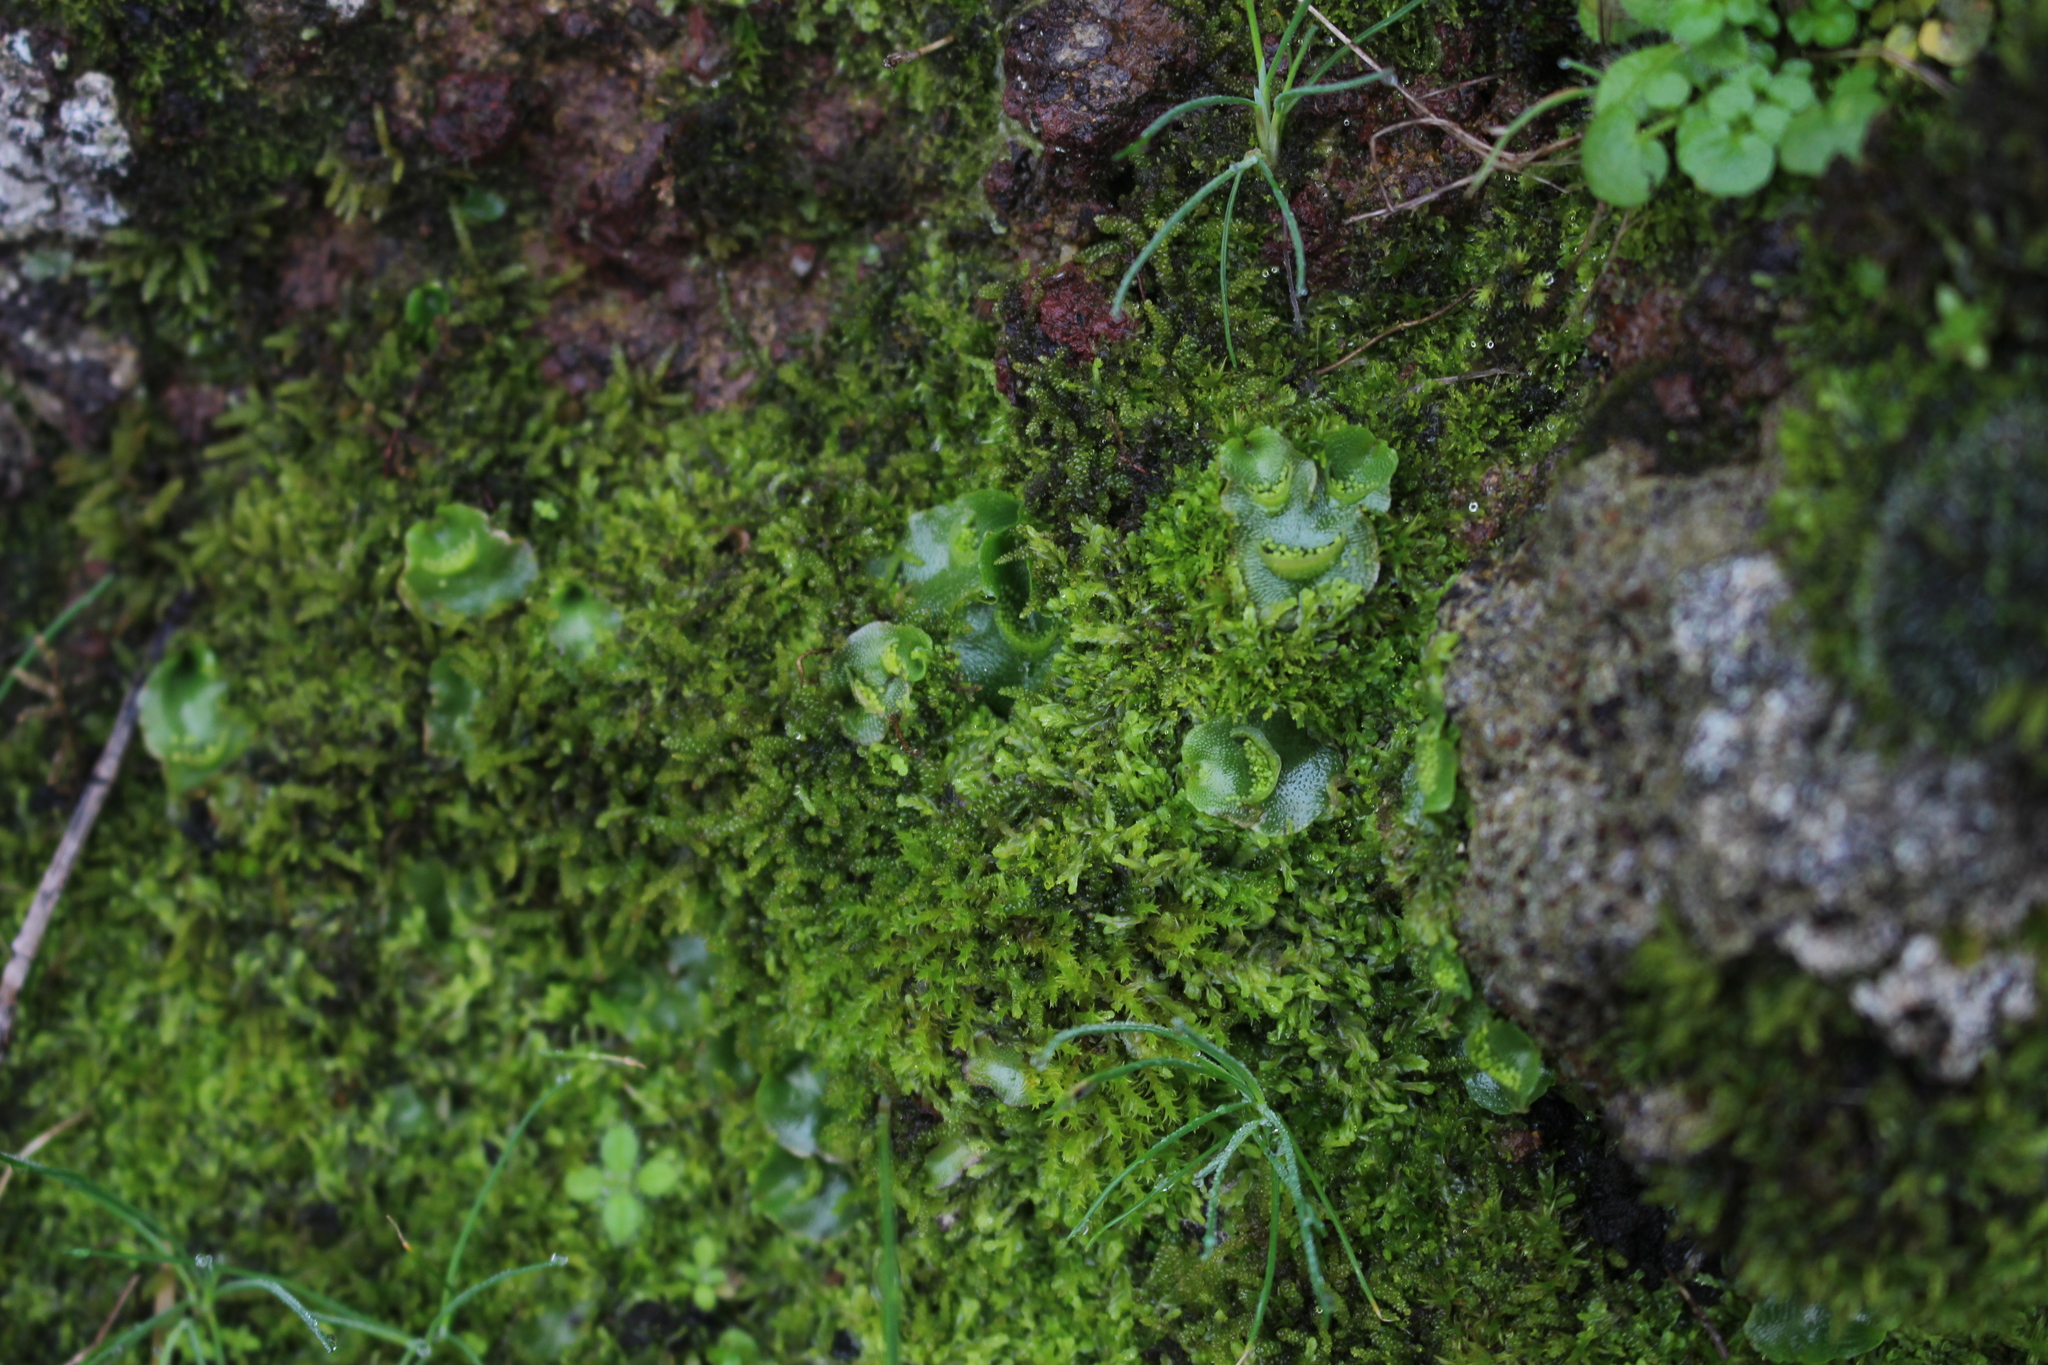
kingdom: Plantae
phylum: Marchantiophyta
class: Marchantiopsida
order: Lunulariales
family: Lunulariaceae
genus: Lunularia
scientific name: Lunularia cruciata
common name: Crescent-cup liverwort
